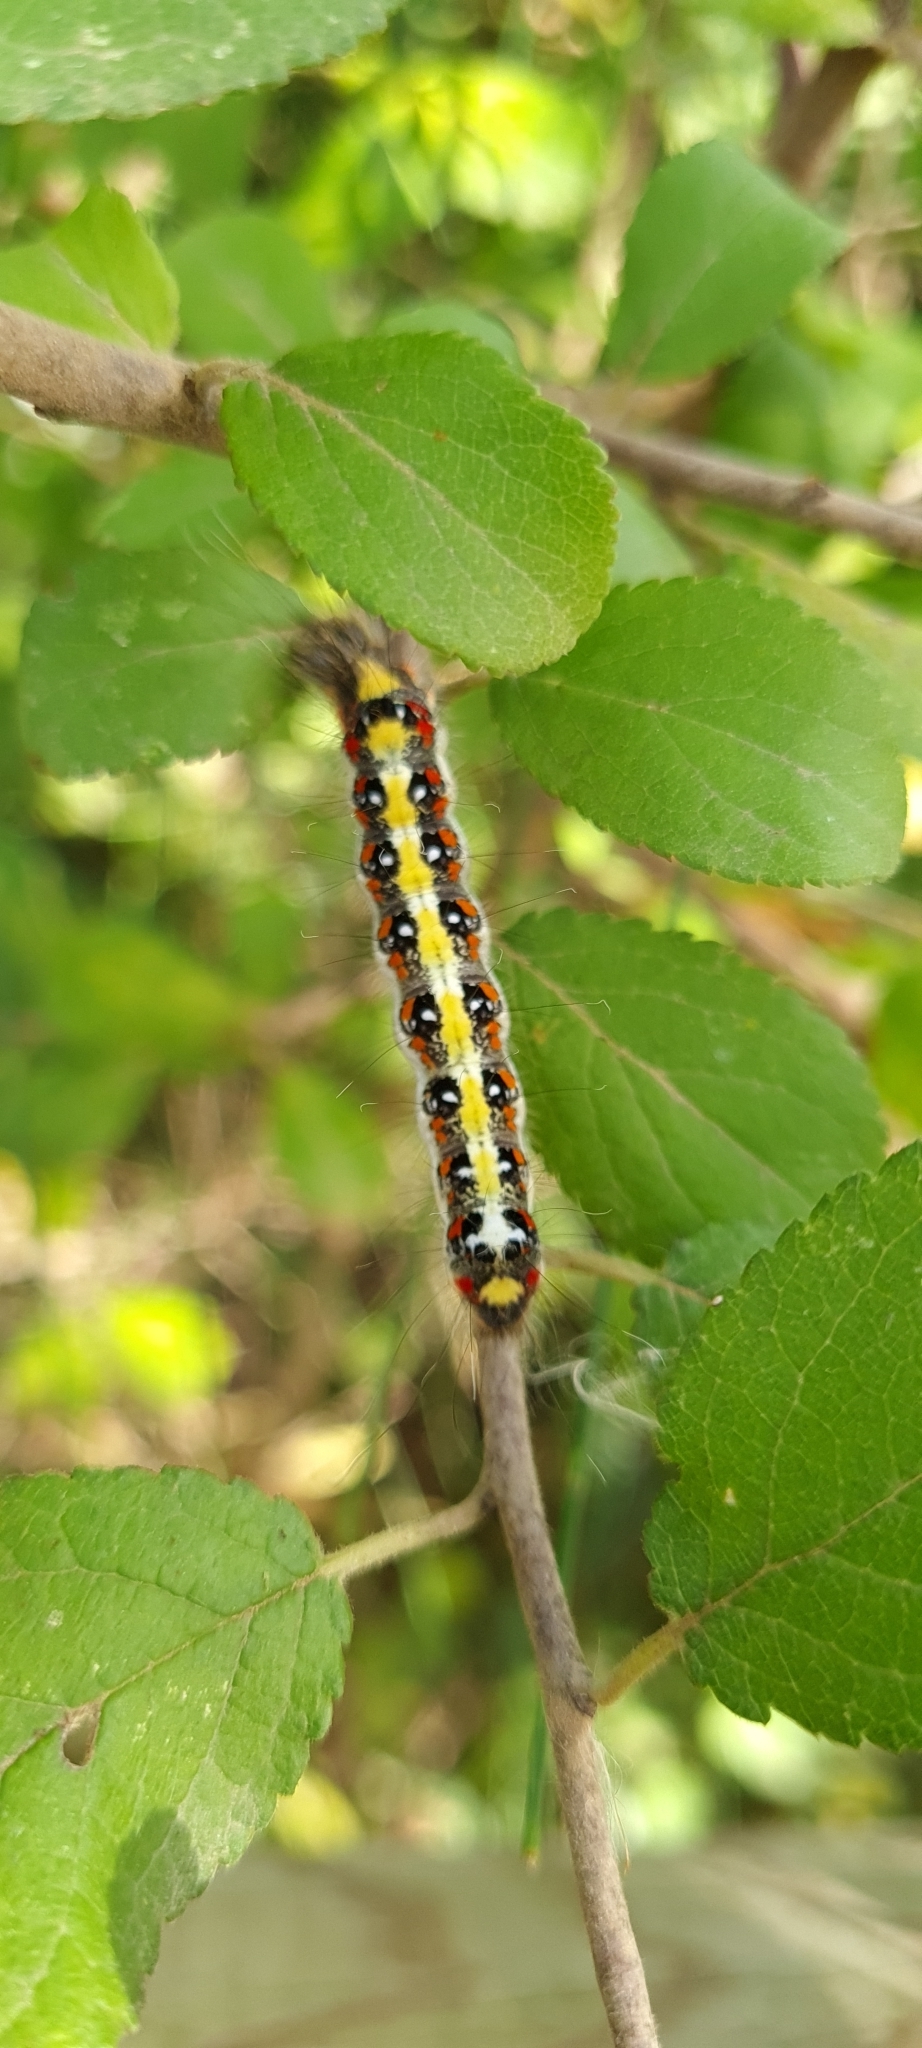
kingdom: Animalia
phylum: Arthropoda
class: Insecta
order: Lepidoptera
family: Noctuidae
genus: Acronicta
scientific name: Acronicta tridens
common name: Dark dagger
